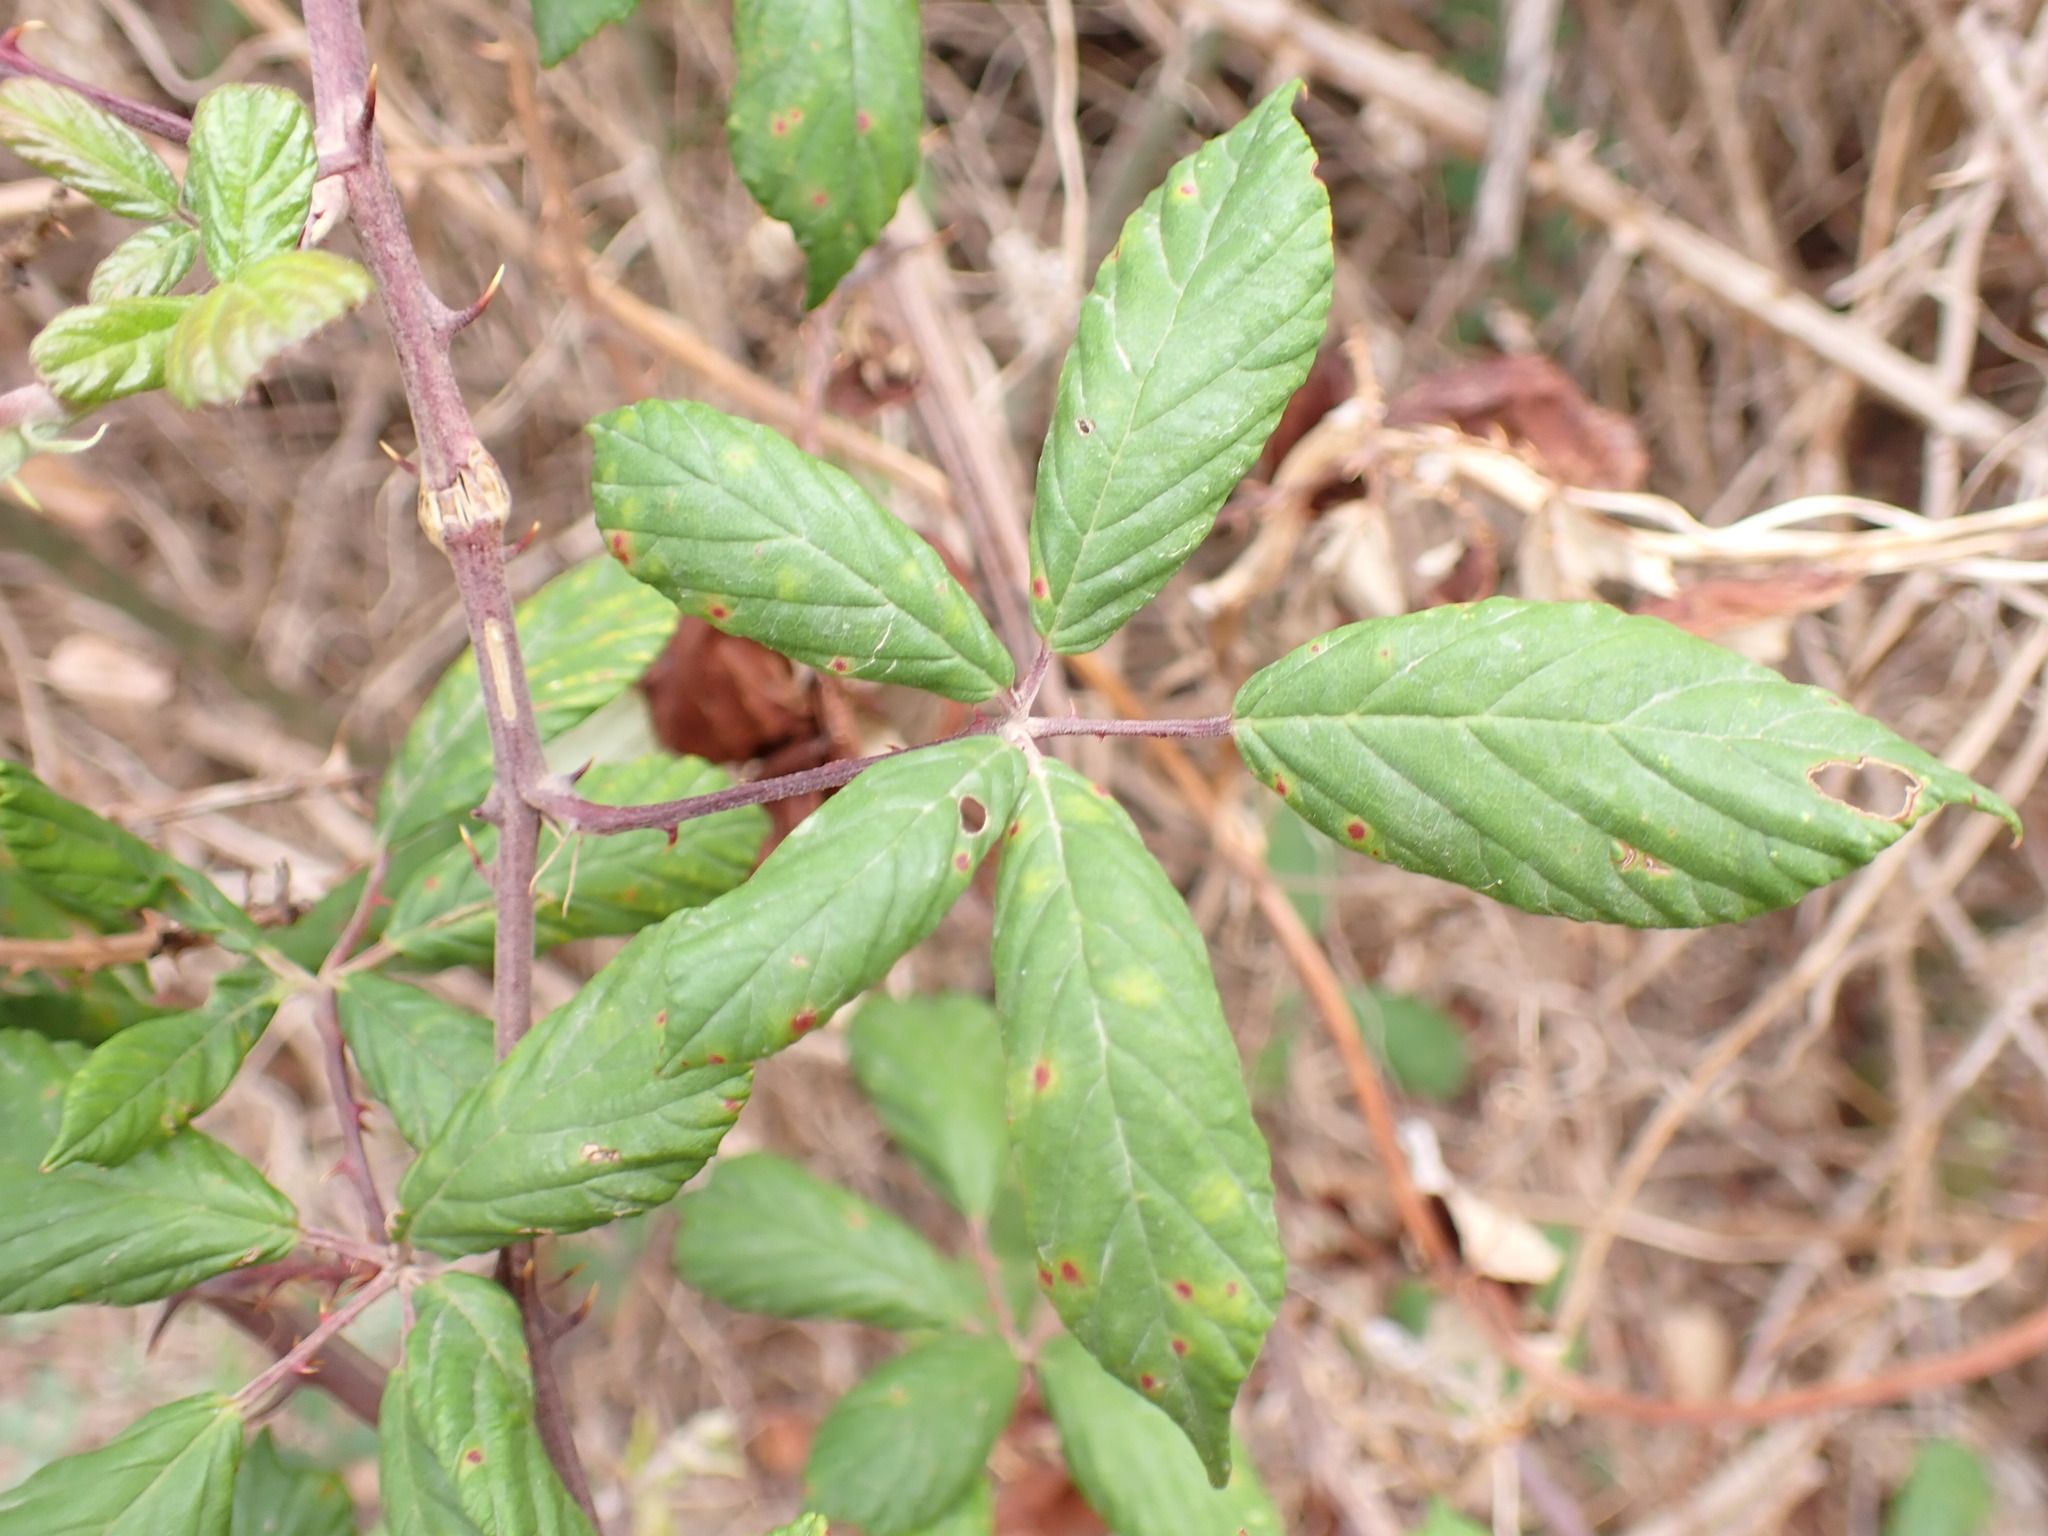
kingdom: Plantae
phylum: Tracheophyta
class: Magnoliopsida
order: Rosales
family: Rosaceae
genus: Rubus
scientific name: Rubus ulmifolius
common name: Elmleaf blackberry
